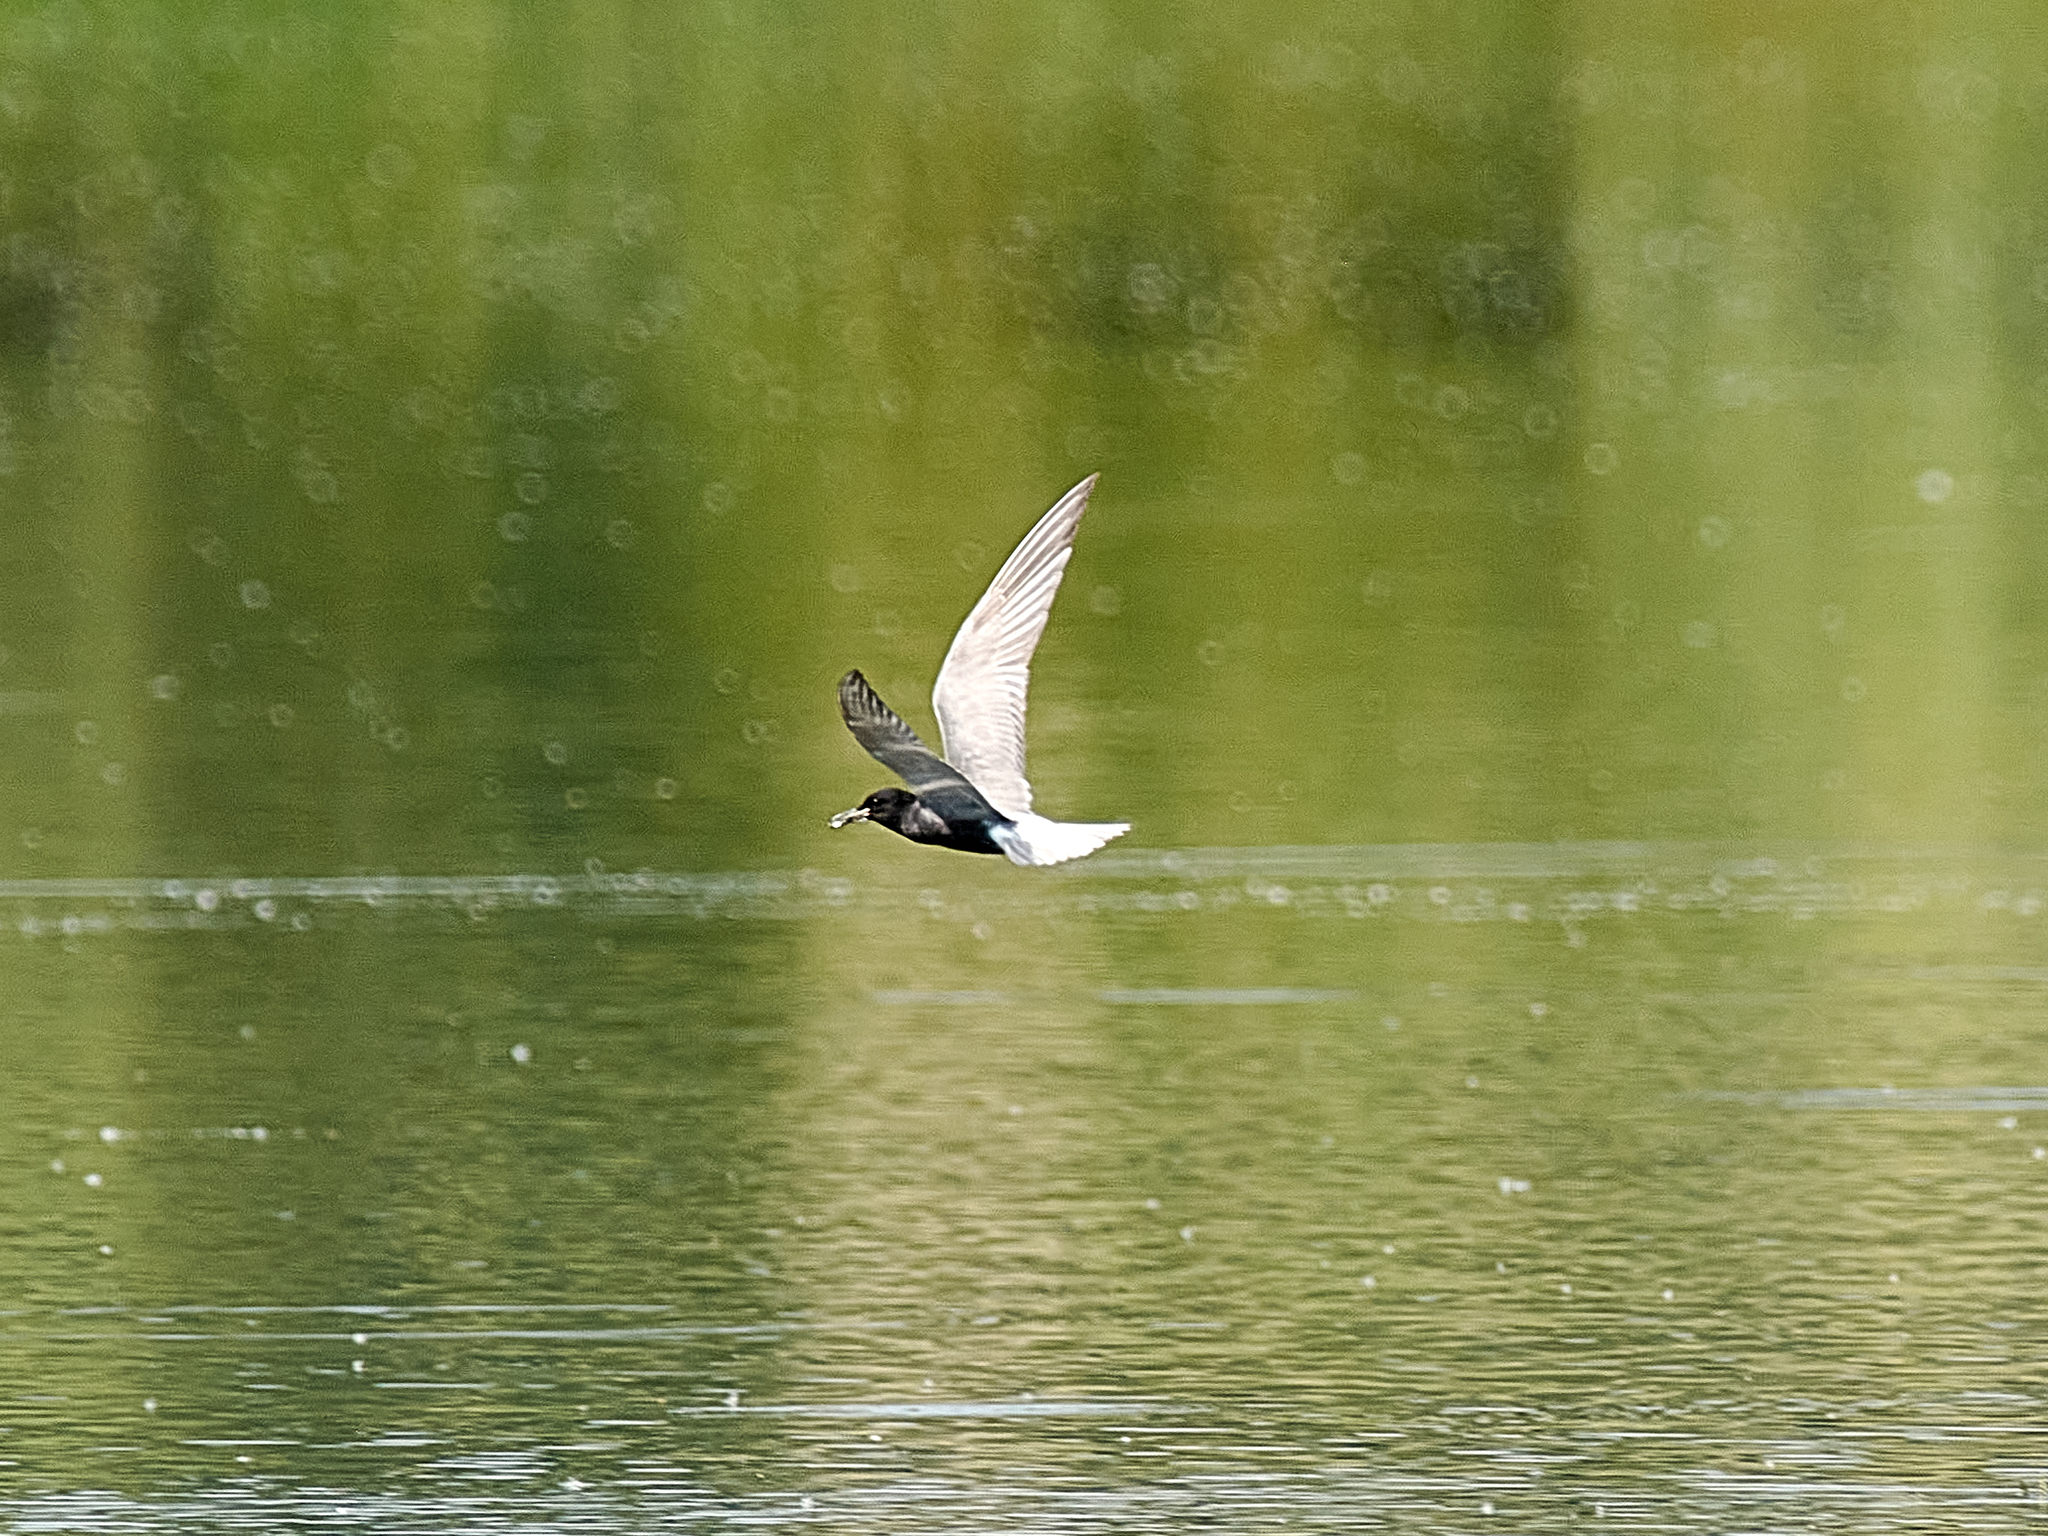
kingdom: Animalia
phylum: Chordata
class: Aves
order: Charadriiformes
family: Laridae
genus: Chlidonias
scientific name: Chlidonias niger
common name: Black tern
